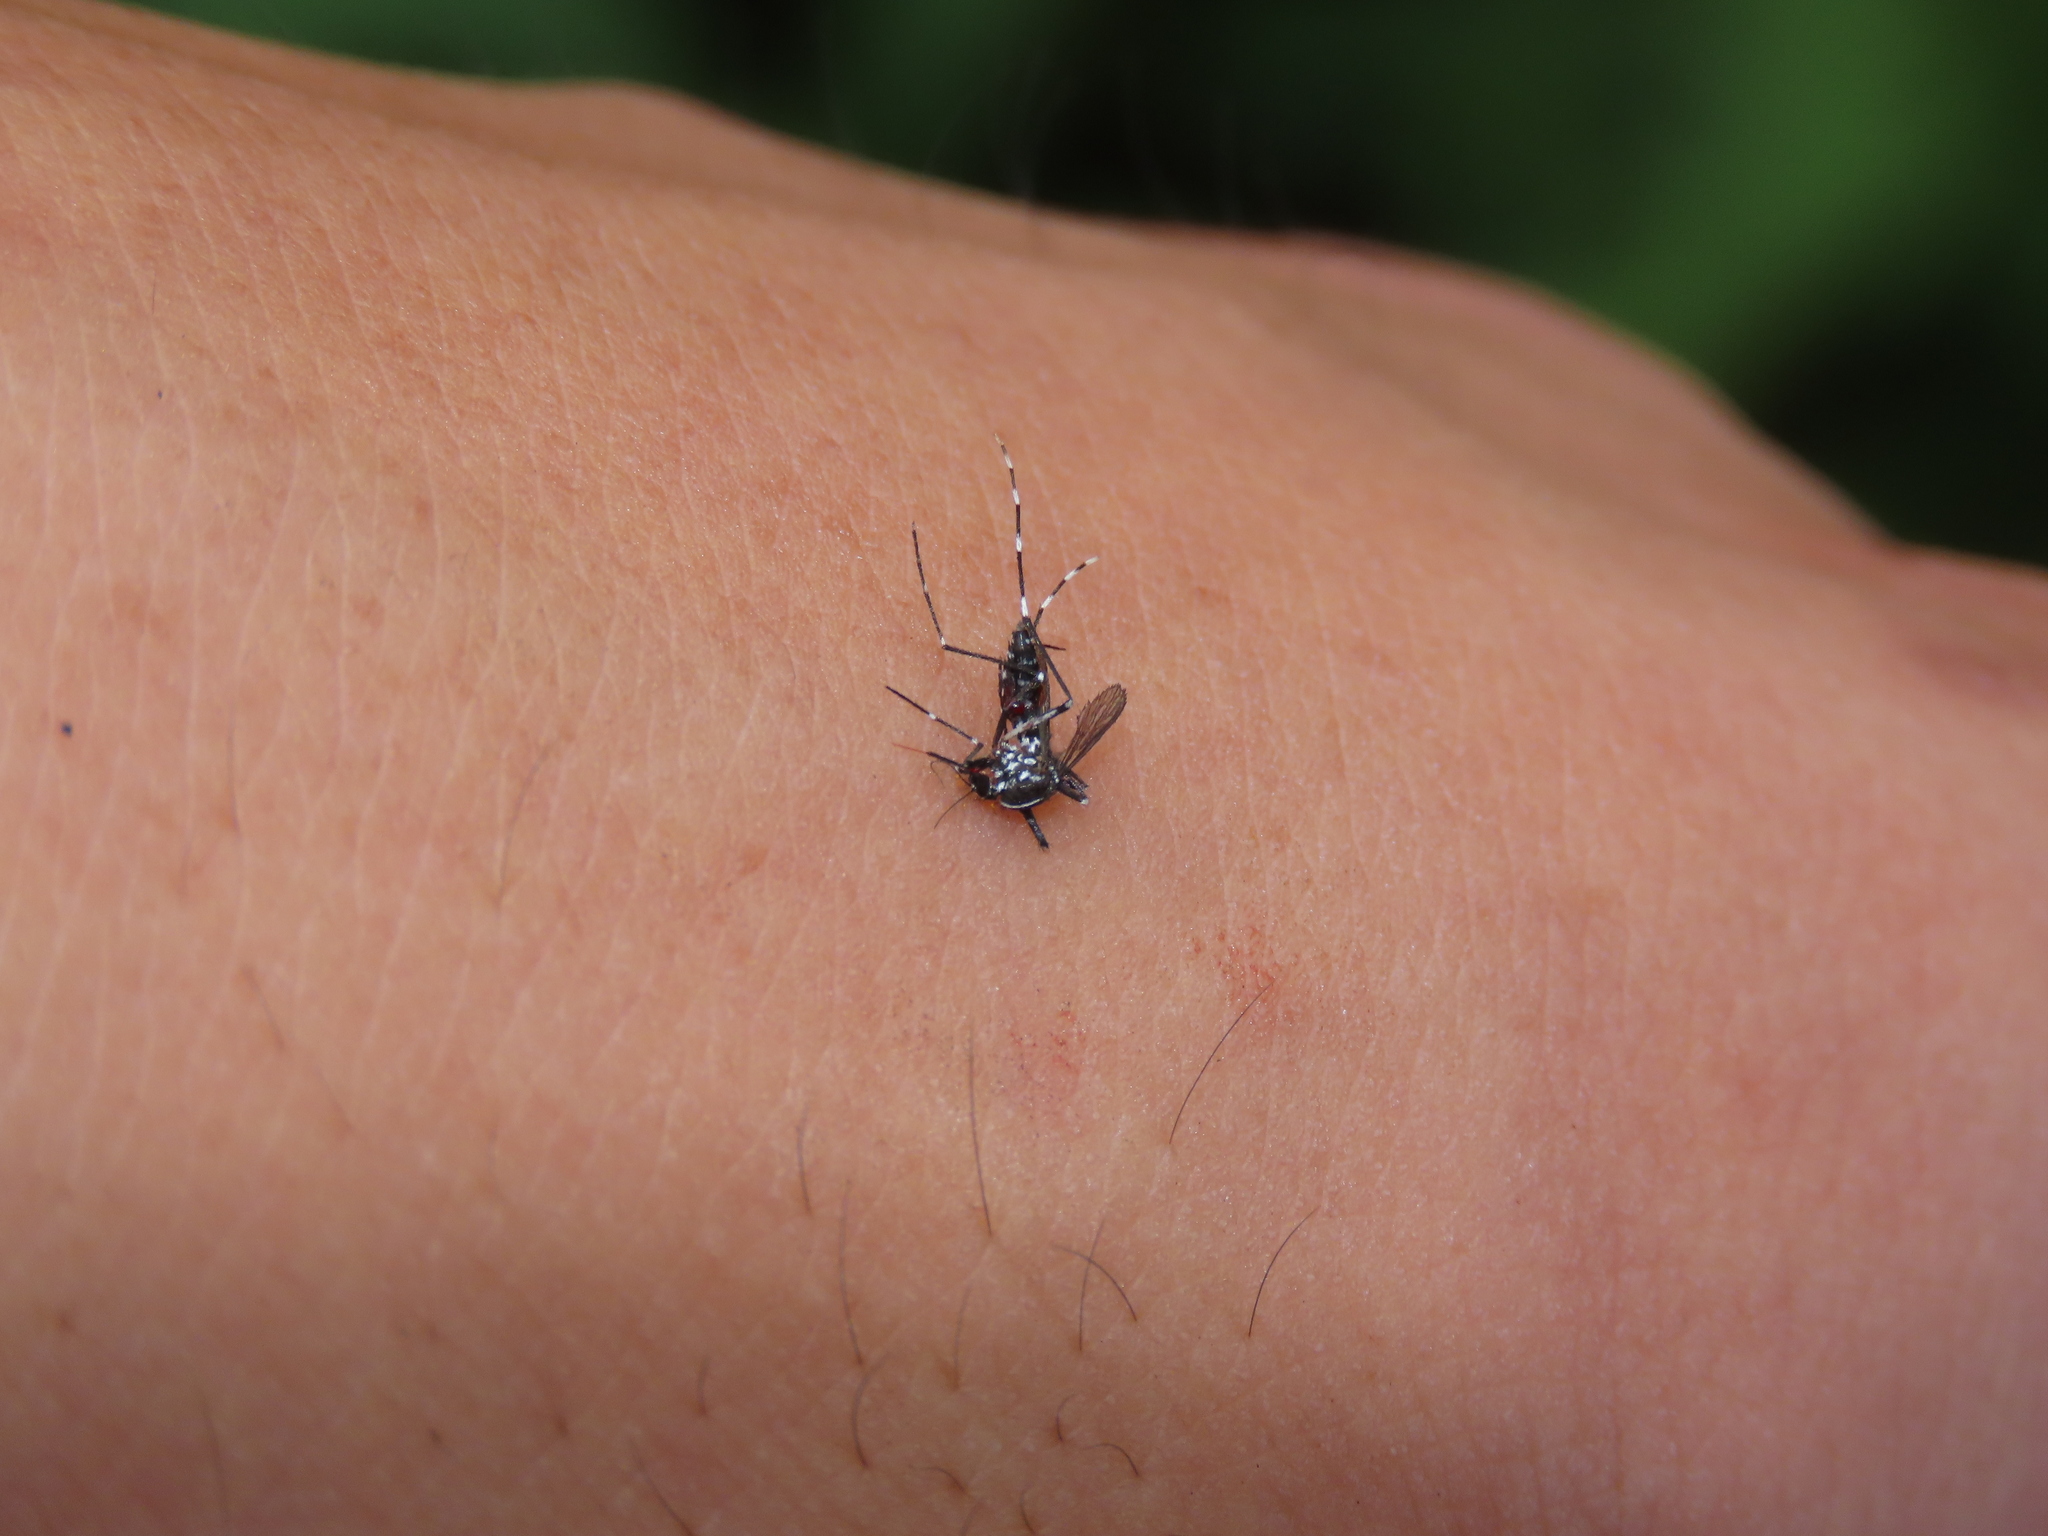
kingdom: Animalia
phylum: Arthropoda
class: Insecta
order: Diptera
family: Culicidae
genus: Aedes
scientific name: Aedes albopictus
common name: Tiger mosquito
